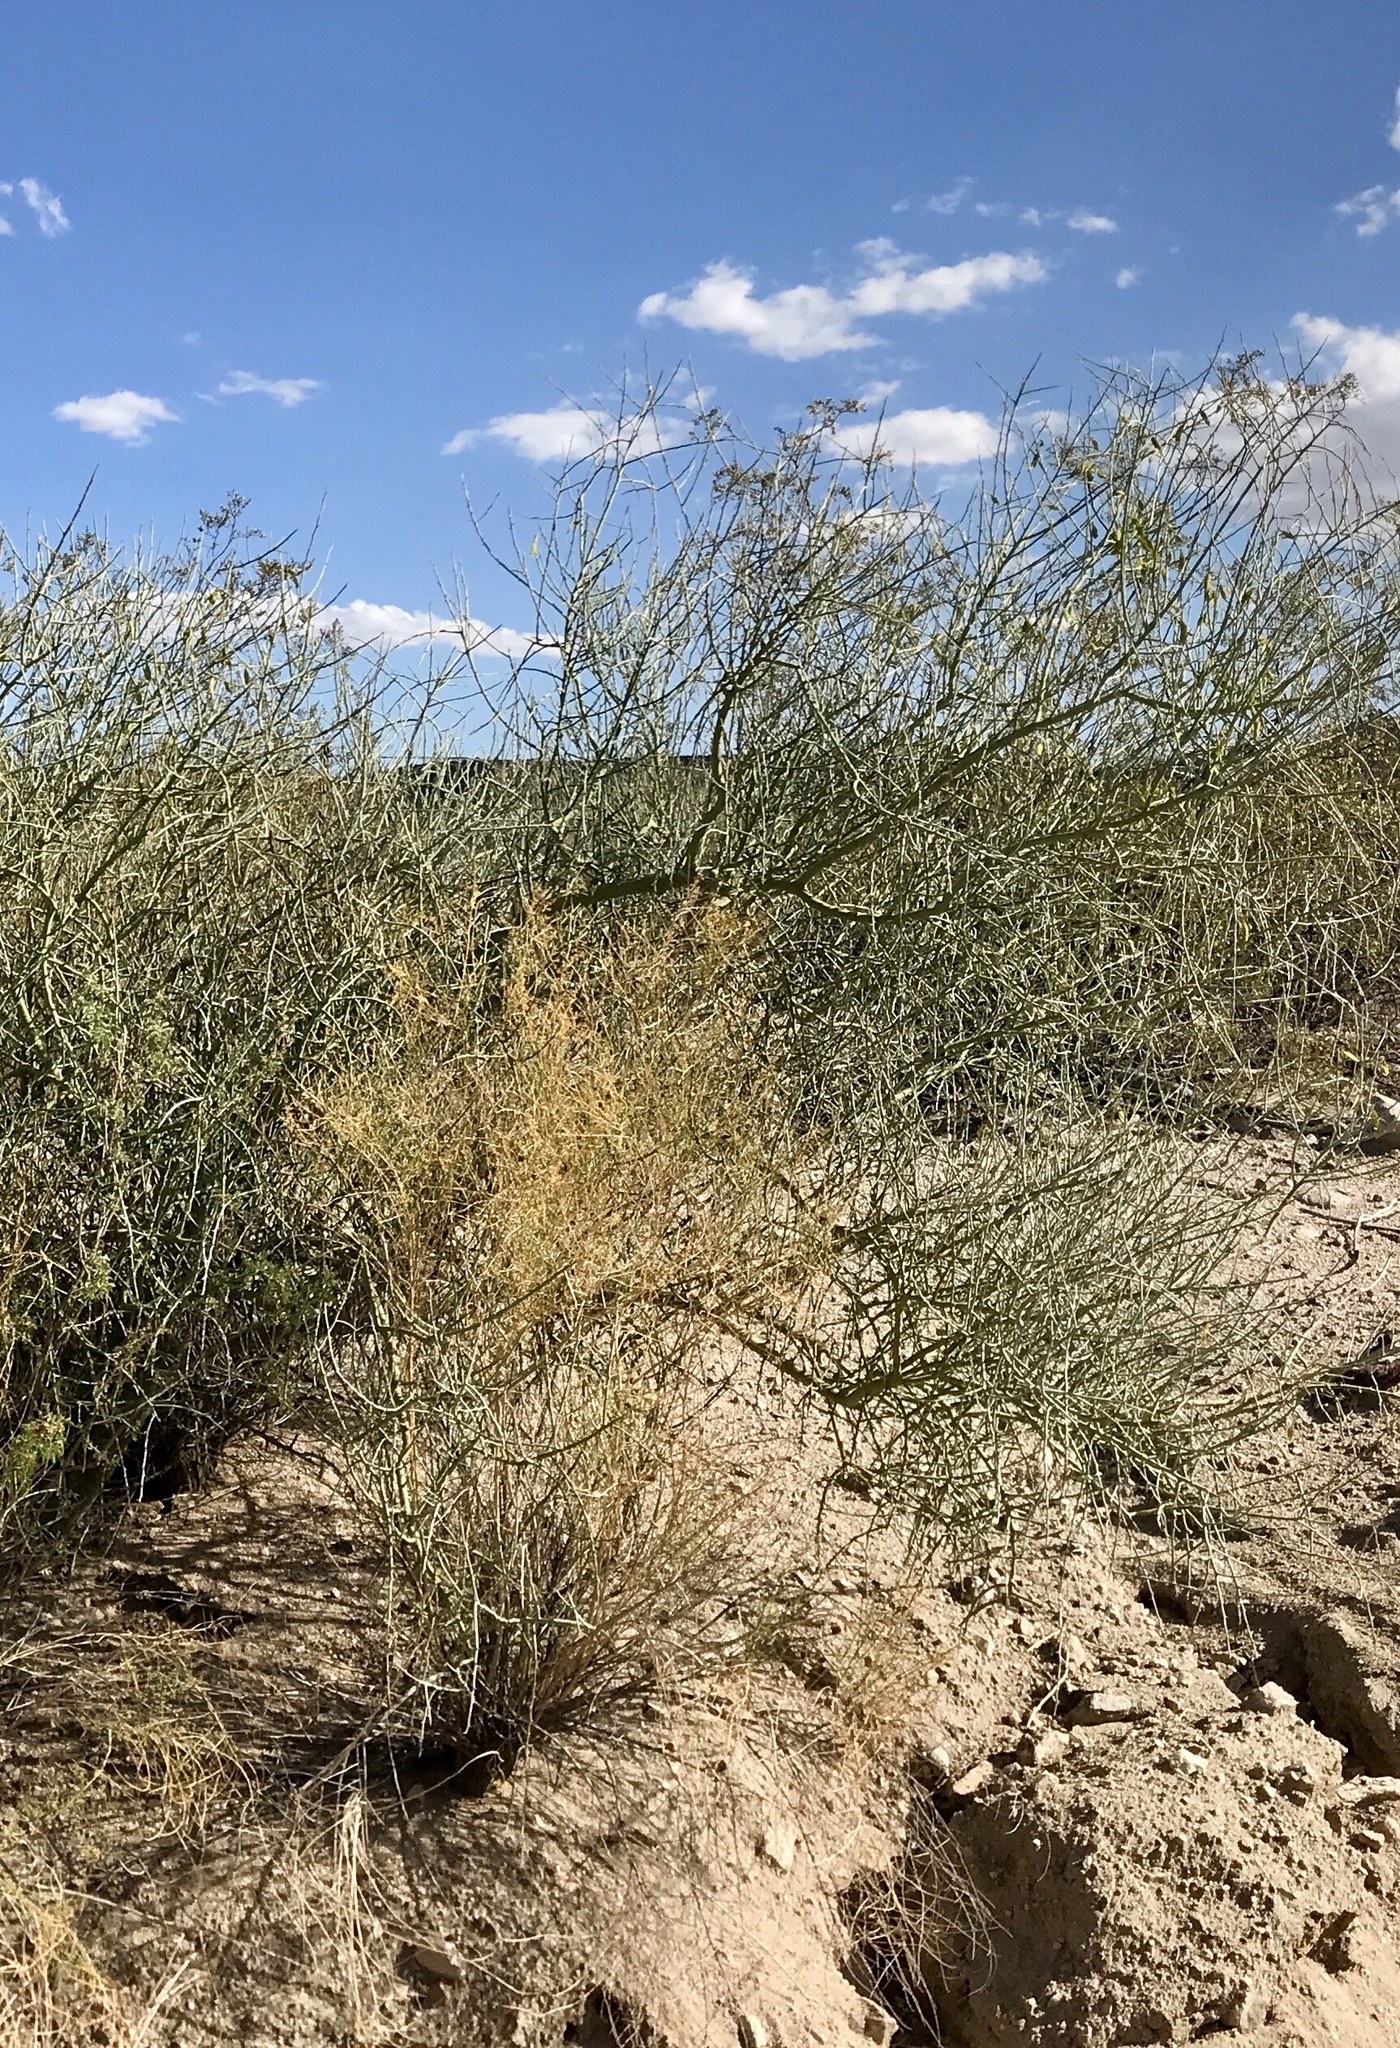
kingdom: Plantae
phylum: Tracheophyta
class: Magnoliopsida
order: Fabales
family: Fabaceae
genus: Parkinsonia
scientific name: Parkinsonia microphylla
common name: Yellow paloverde
